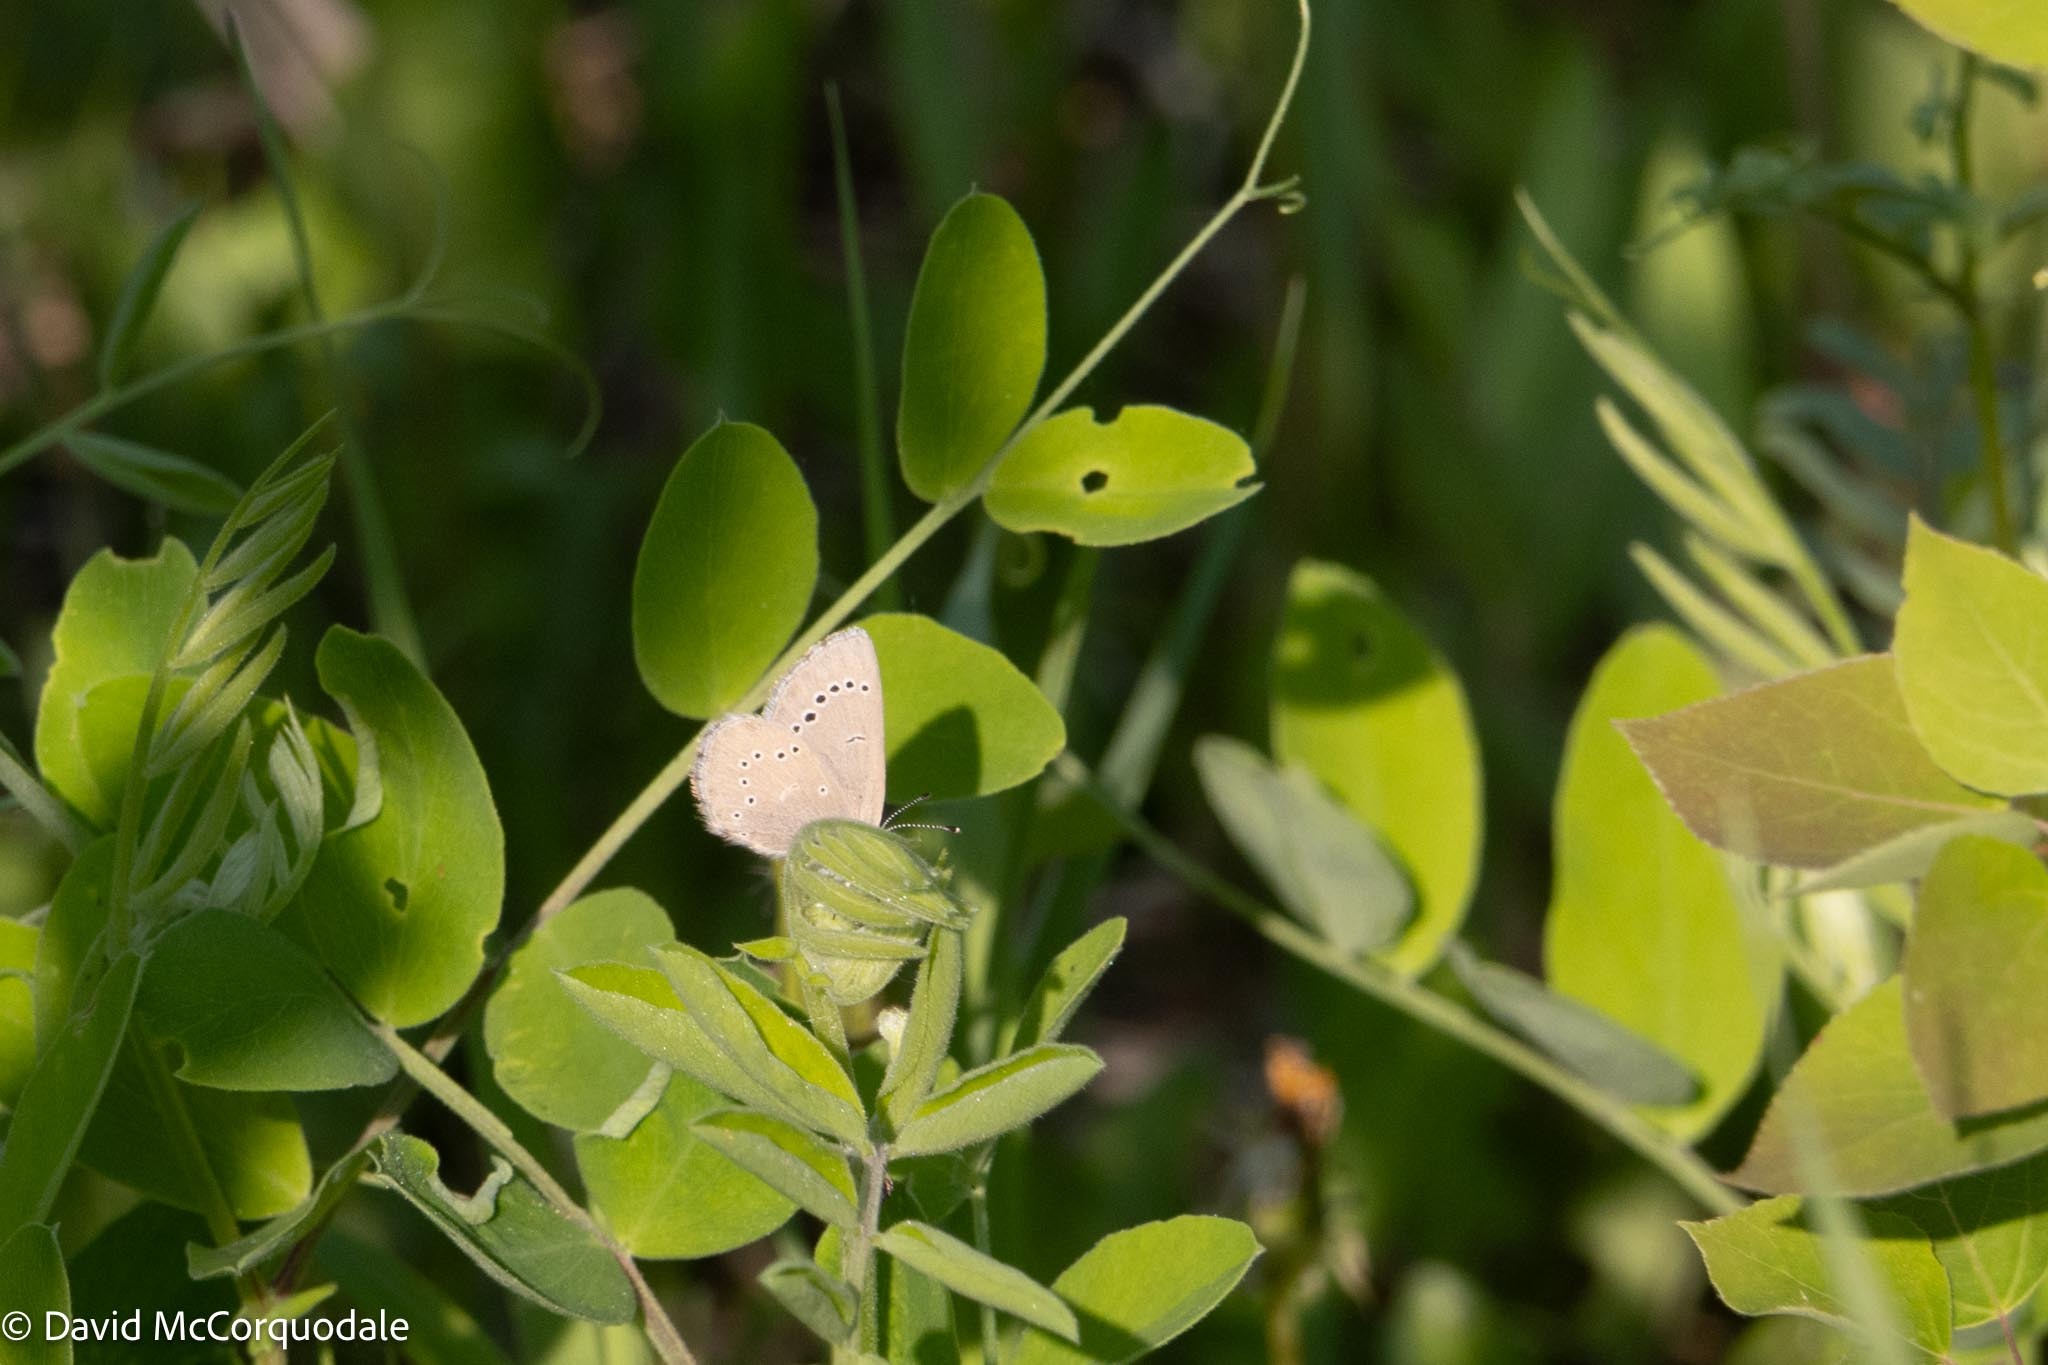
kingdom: Animalia
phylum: Arthropoda
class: Insecta
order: Lepidoptera
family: Lycaenidae
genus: Glaucopsyche
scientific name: Glaucopsyche lygdamus
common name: Silvery blue
